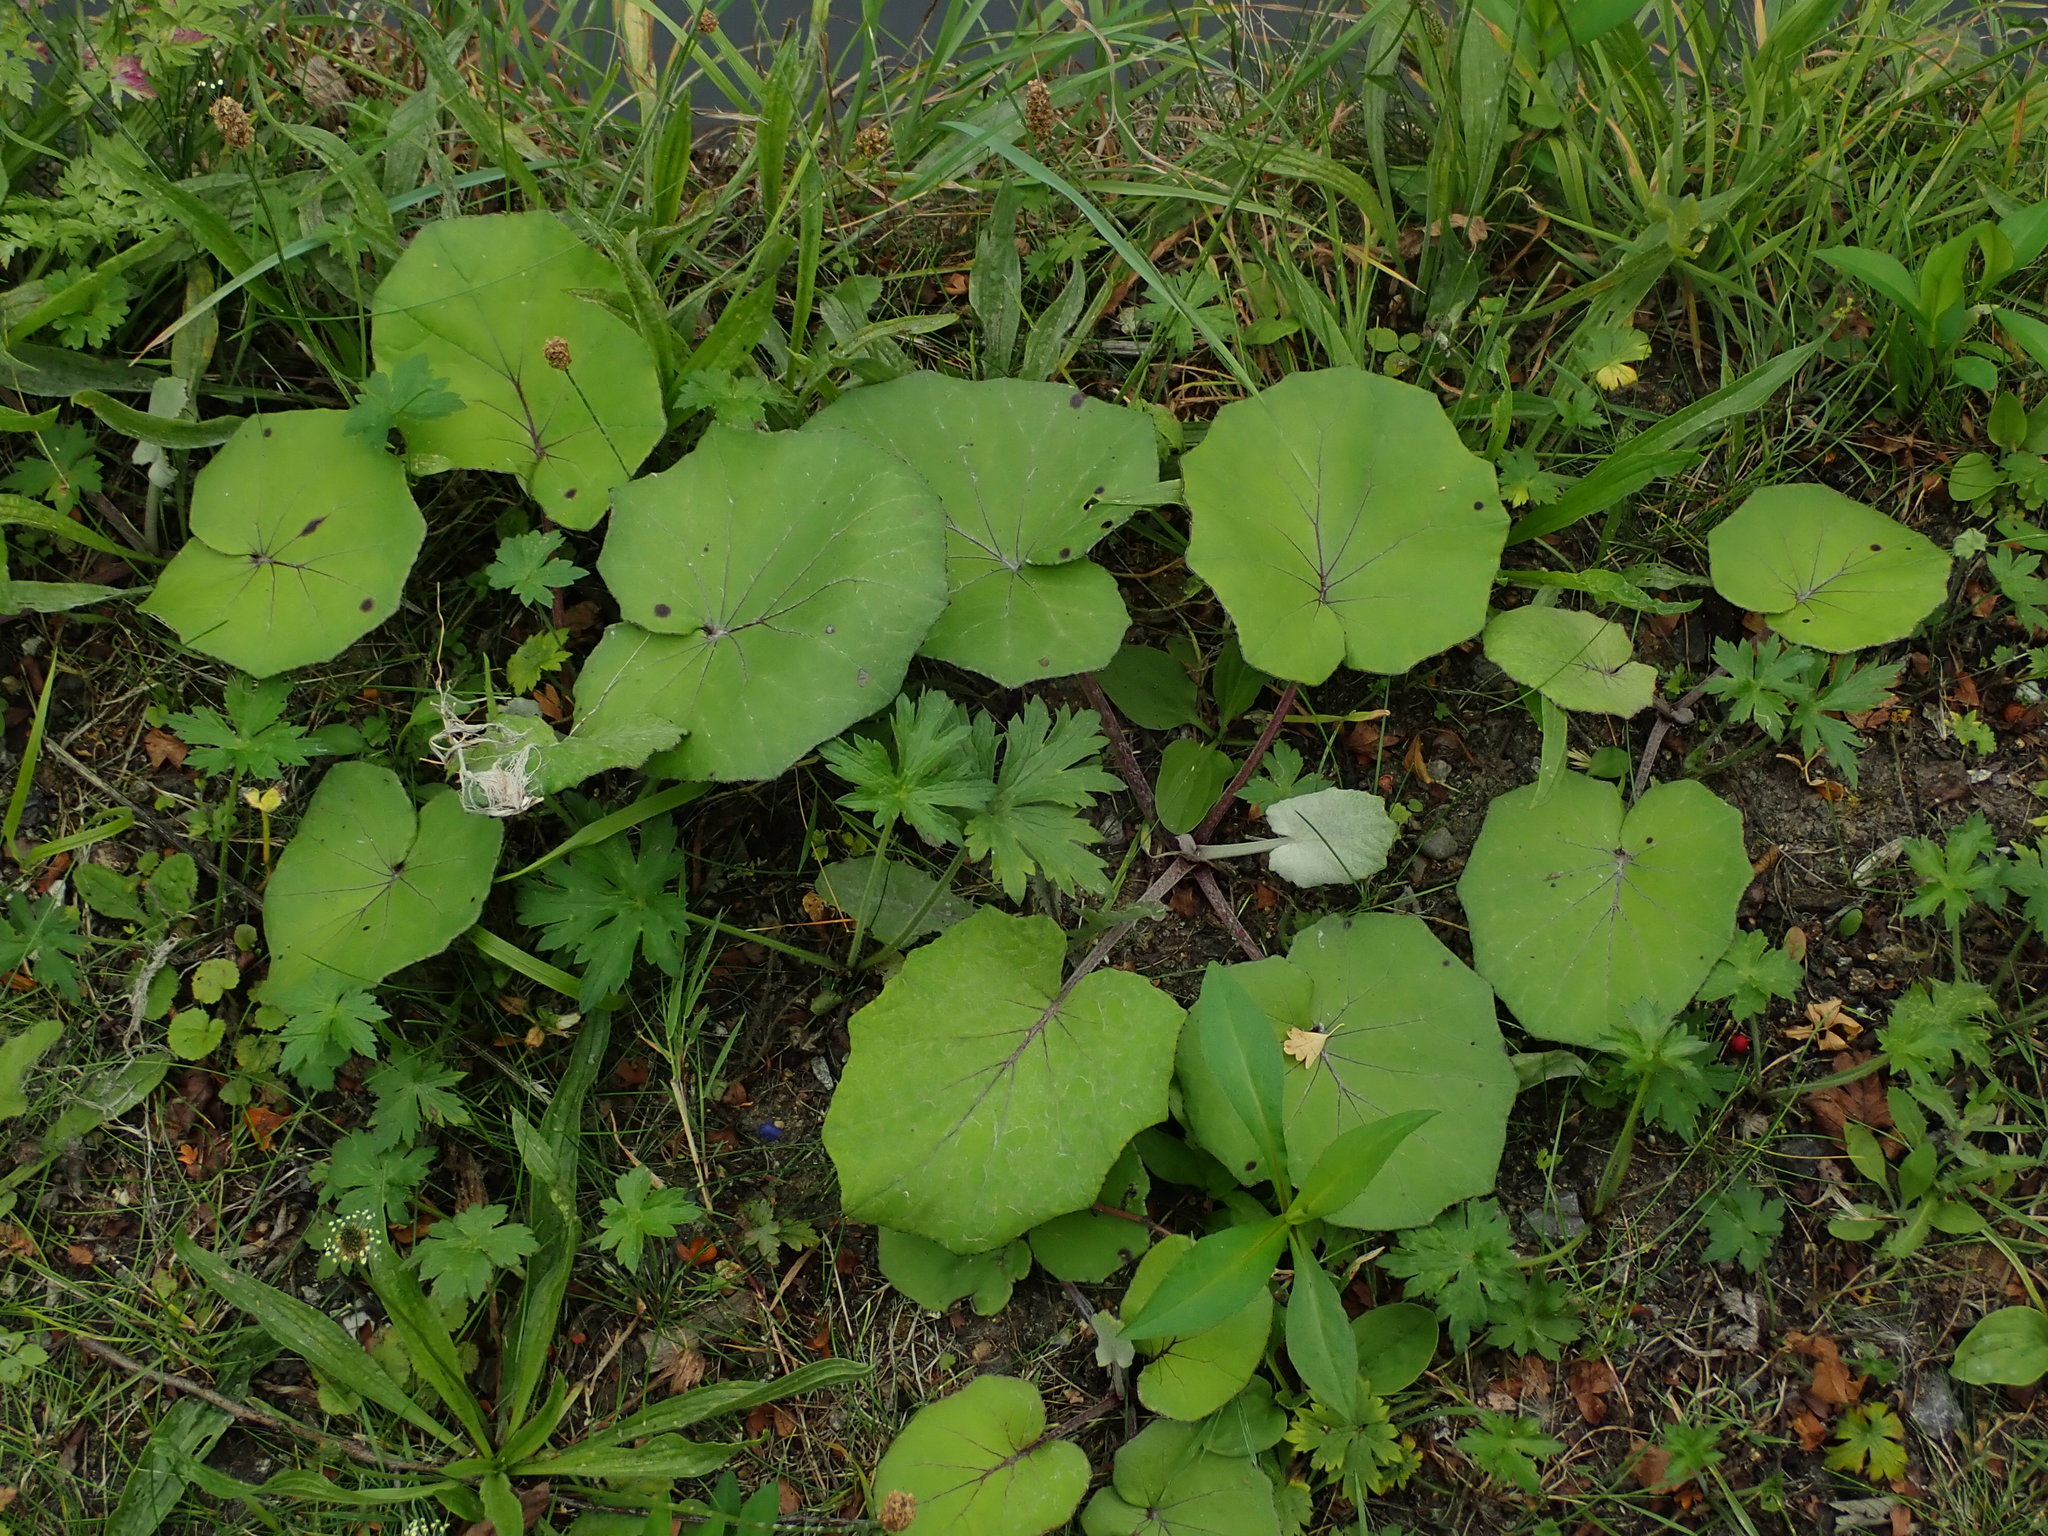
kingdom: Plantae
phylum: Tracheophyta
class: Magnoliopsida
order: Asterales
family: Asteraceae
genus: Tussilago
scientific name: Tussilago farfara
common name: Coltsfoot
